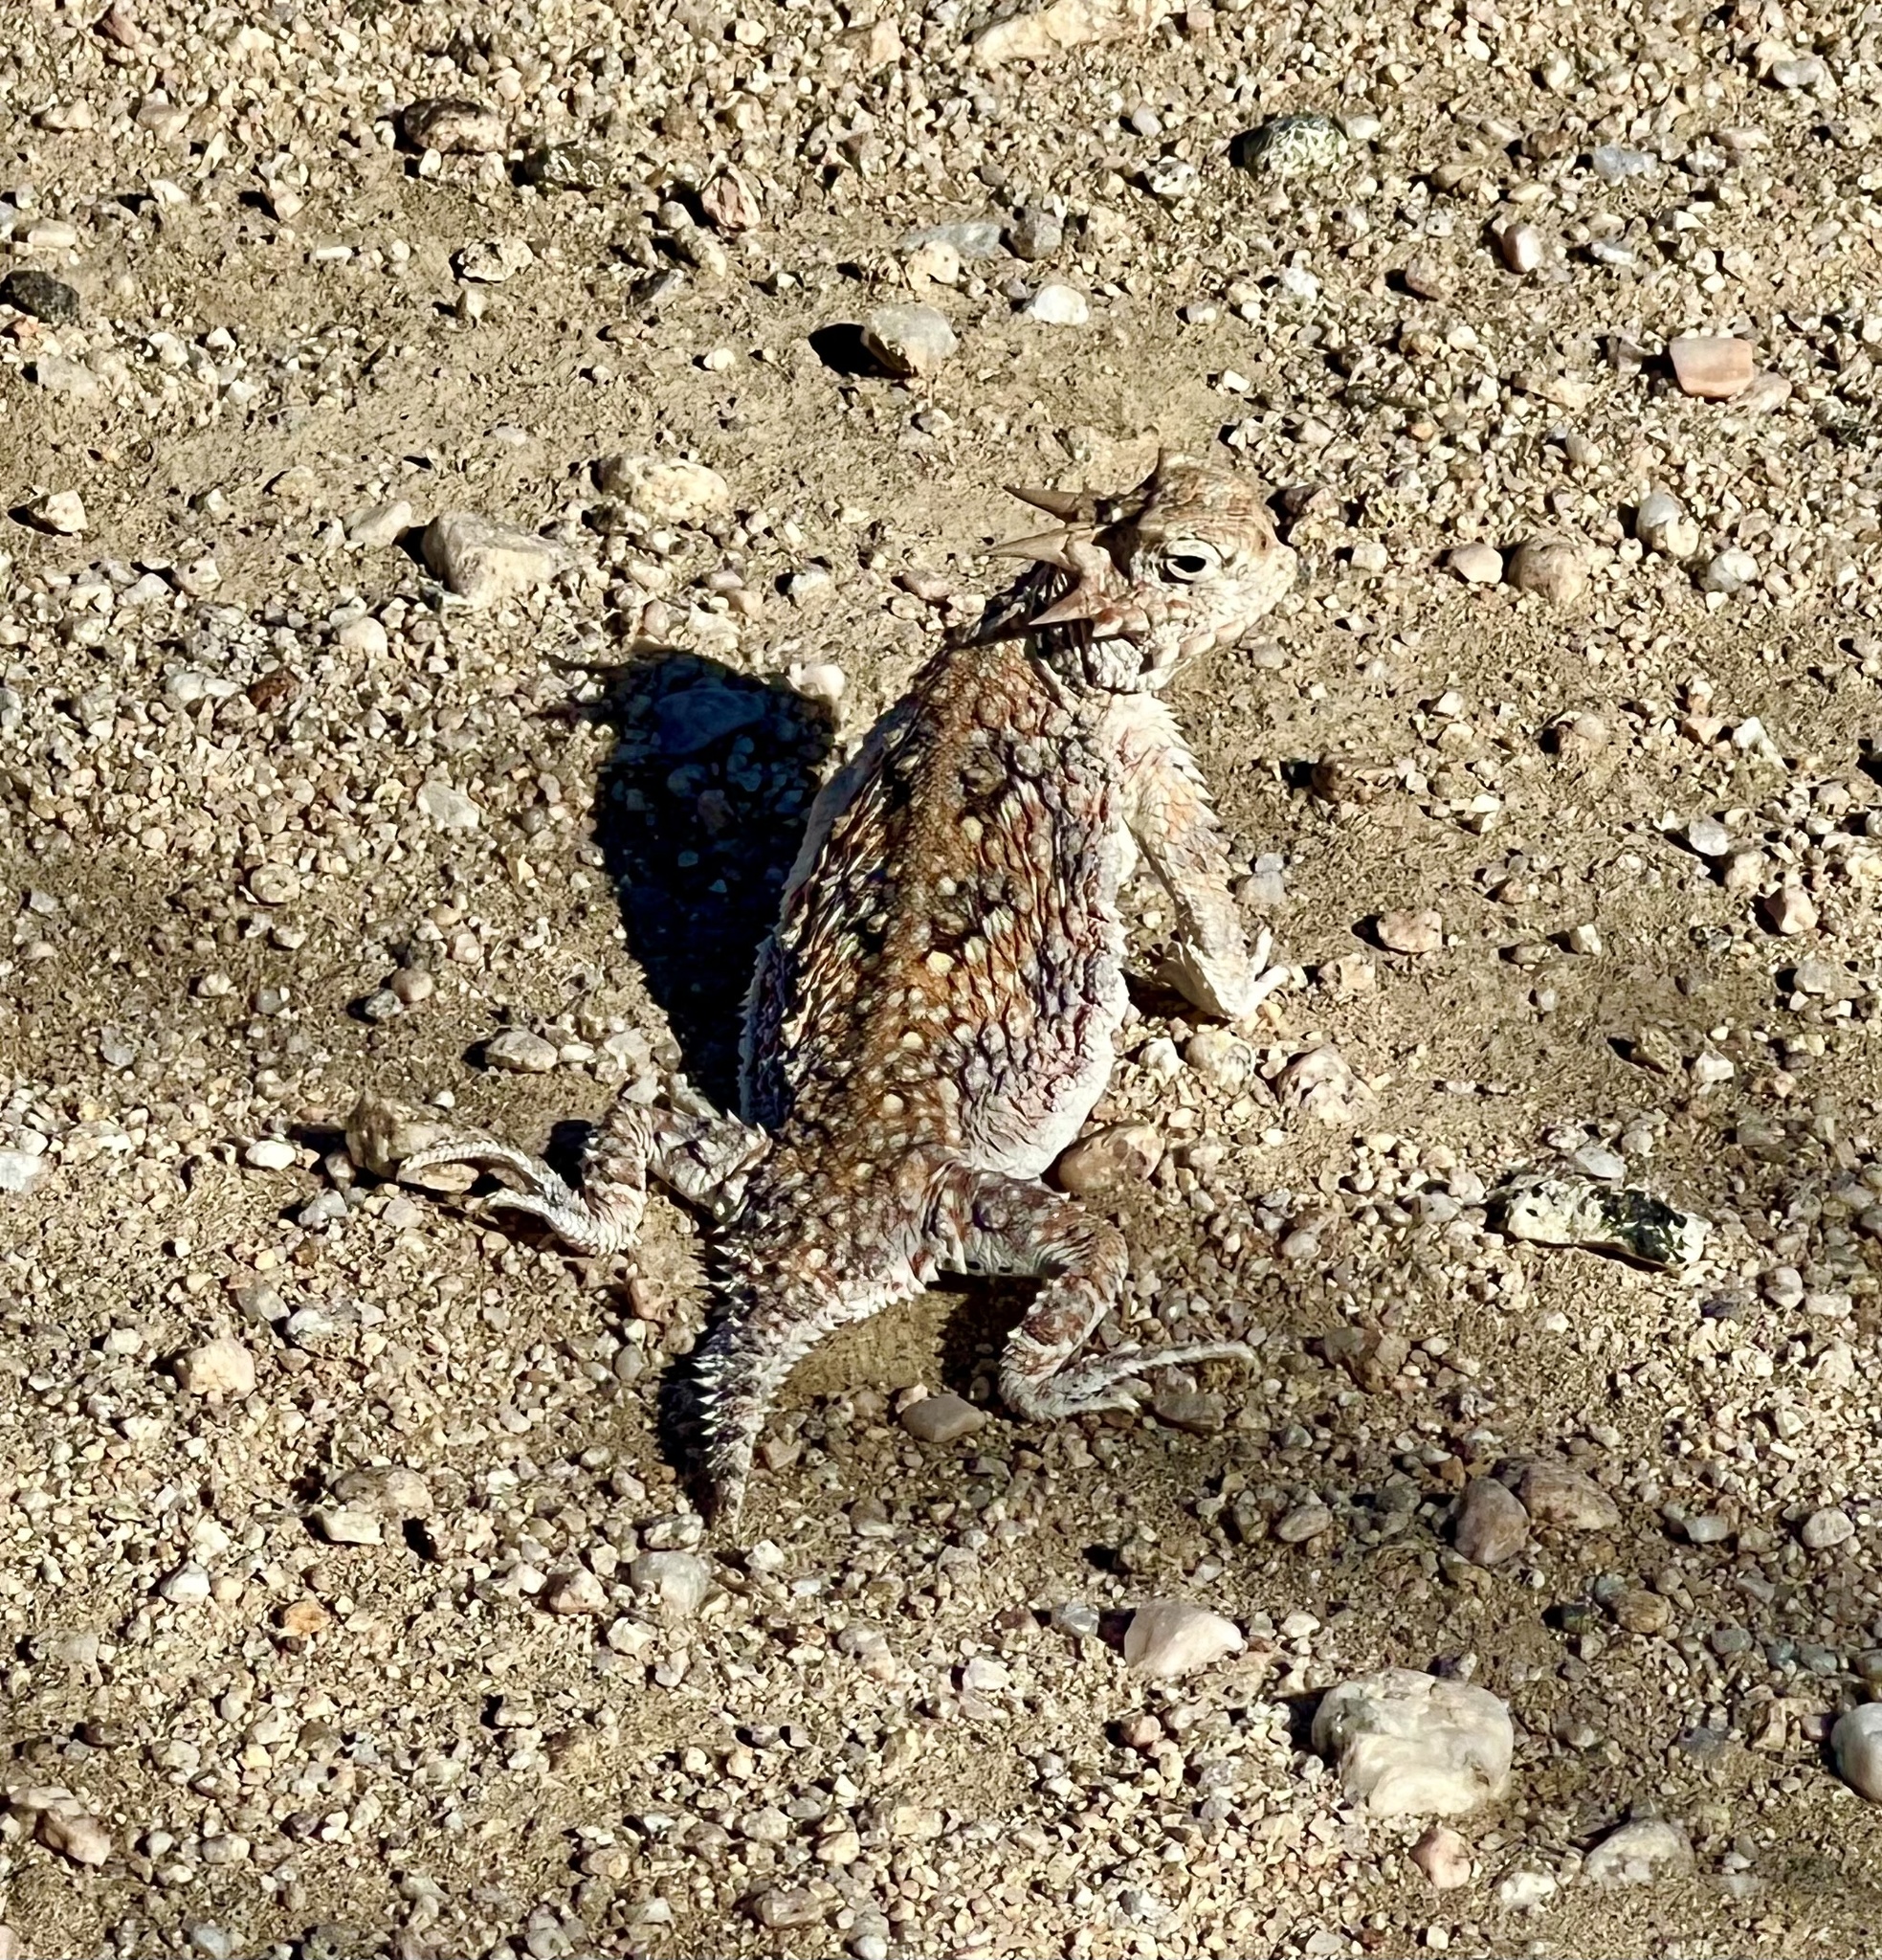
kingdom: Animalia
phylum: Chordata
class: Squamata
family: Phrynosomatidae
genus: Phrynosoma
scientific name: Phrynosoma platyrhinos
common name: Desert horned lizard
